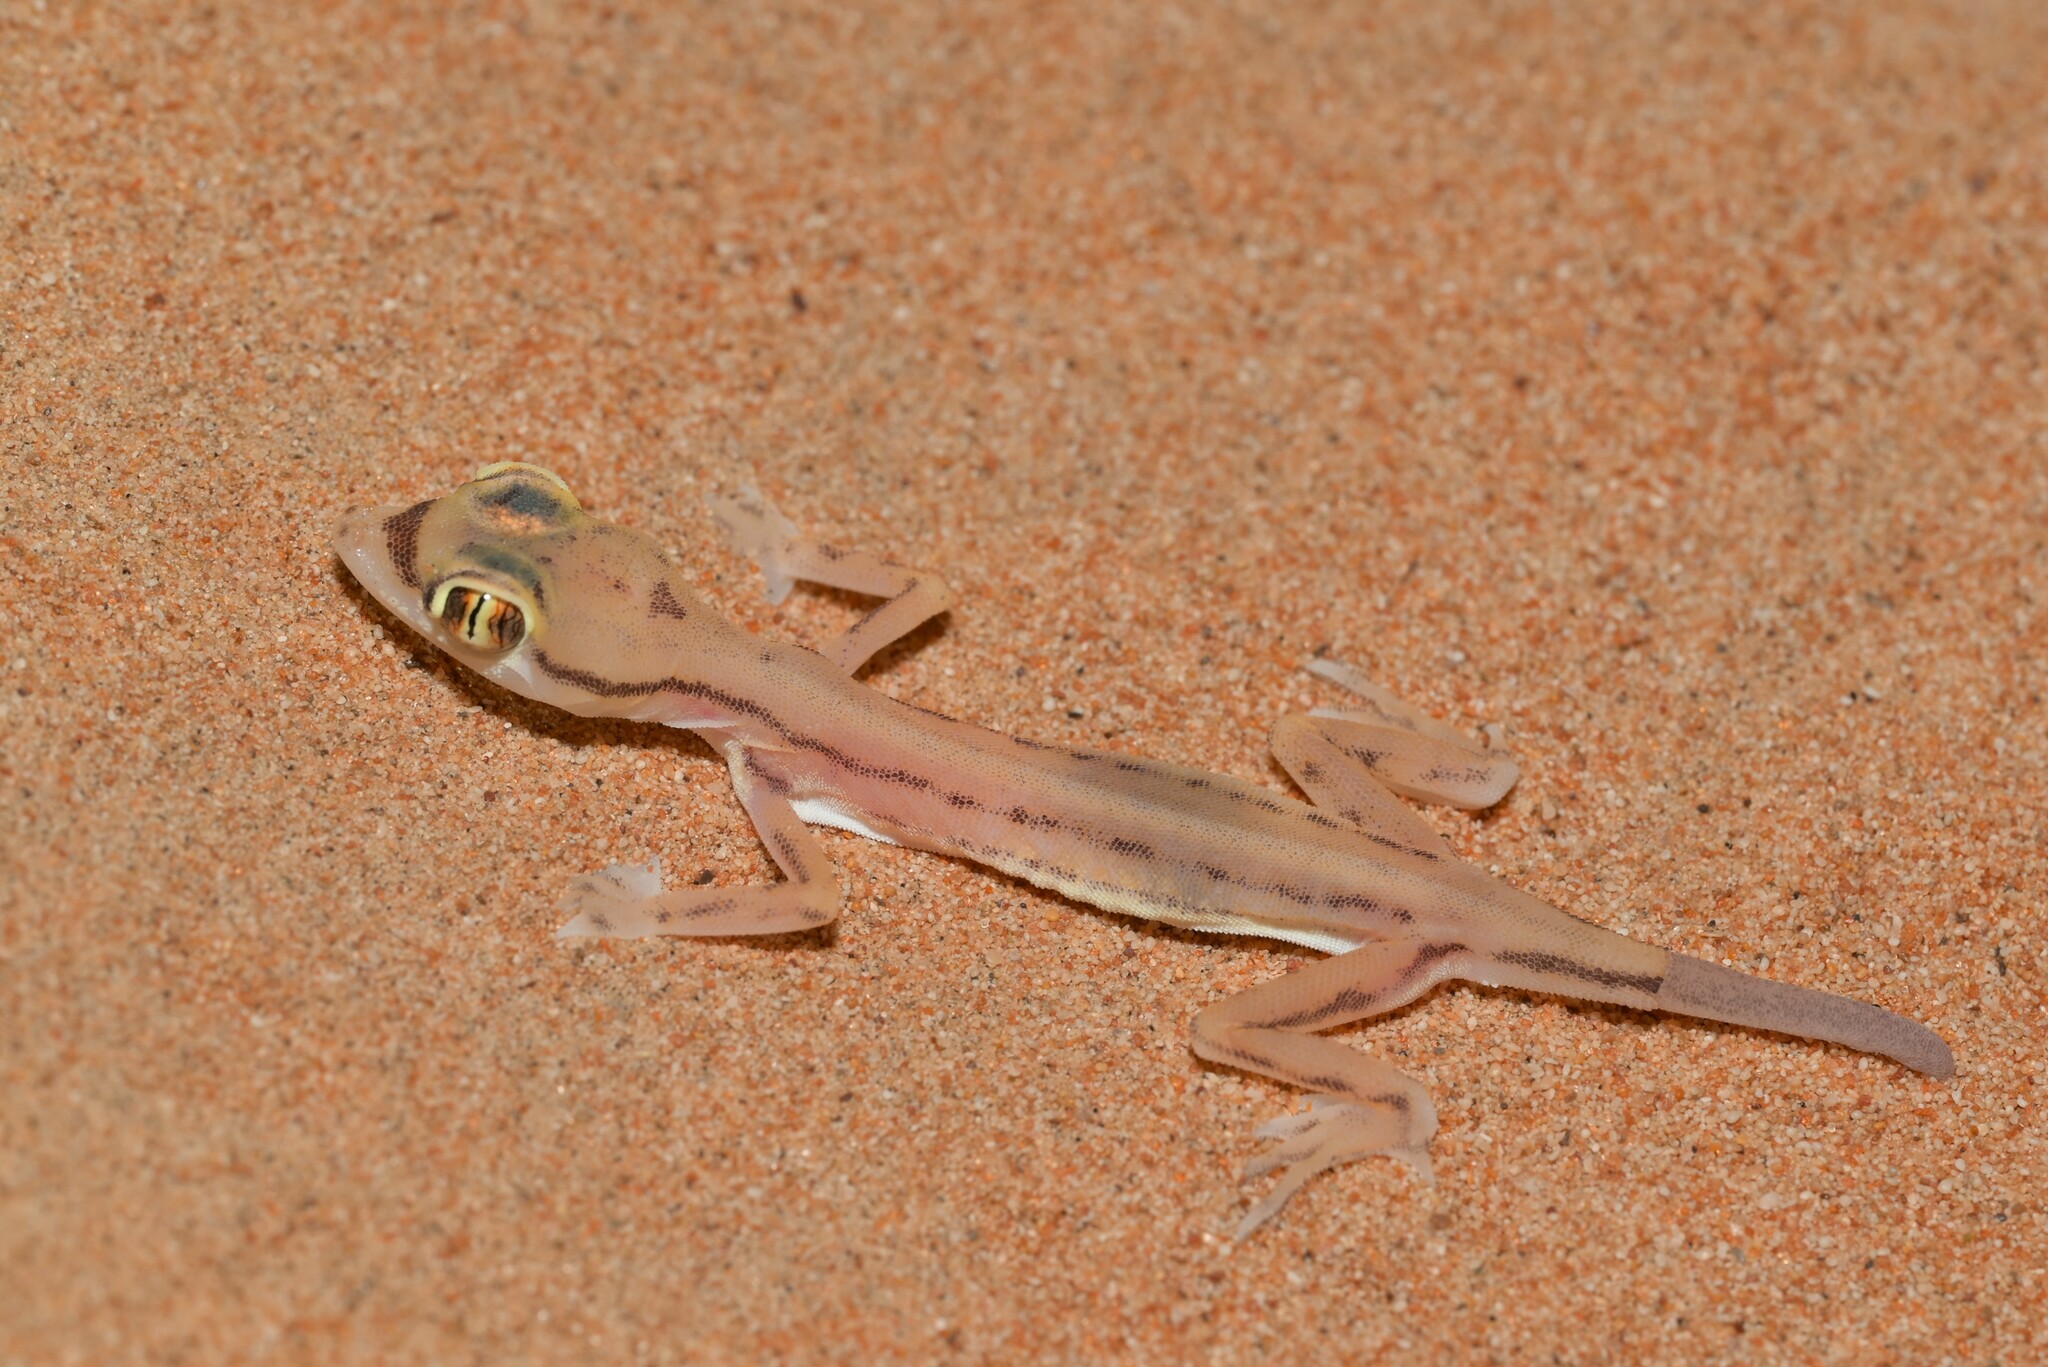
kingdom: Animalia
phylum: Chordata
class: Squamata
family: Gekkonidae
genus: Trigonodactylus
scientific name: Trigonodactylus arabicus
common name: Arabian sand gecko
